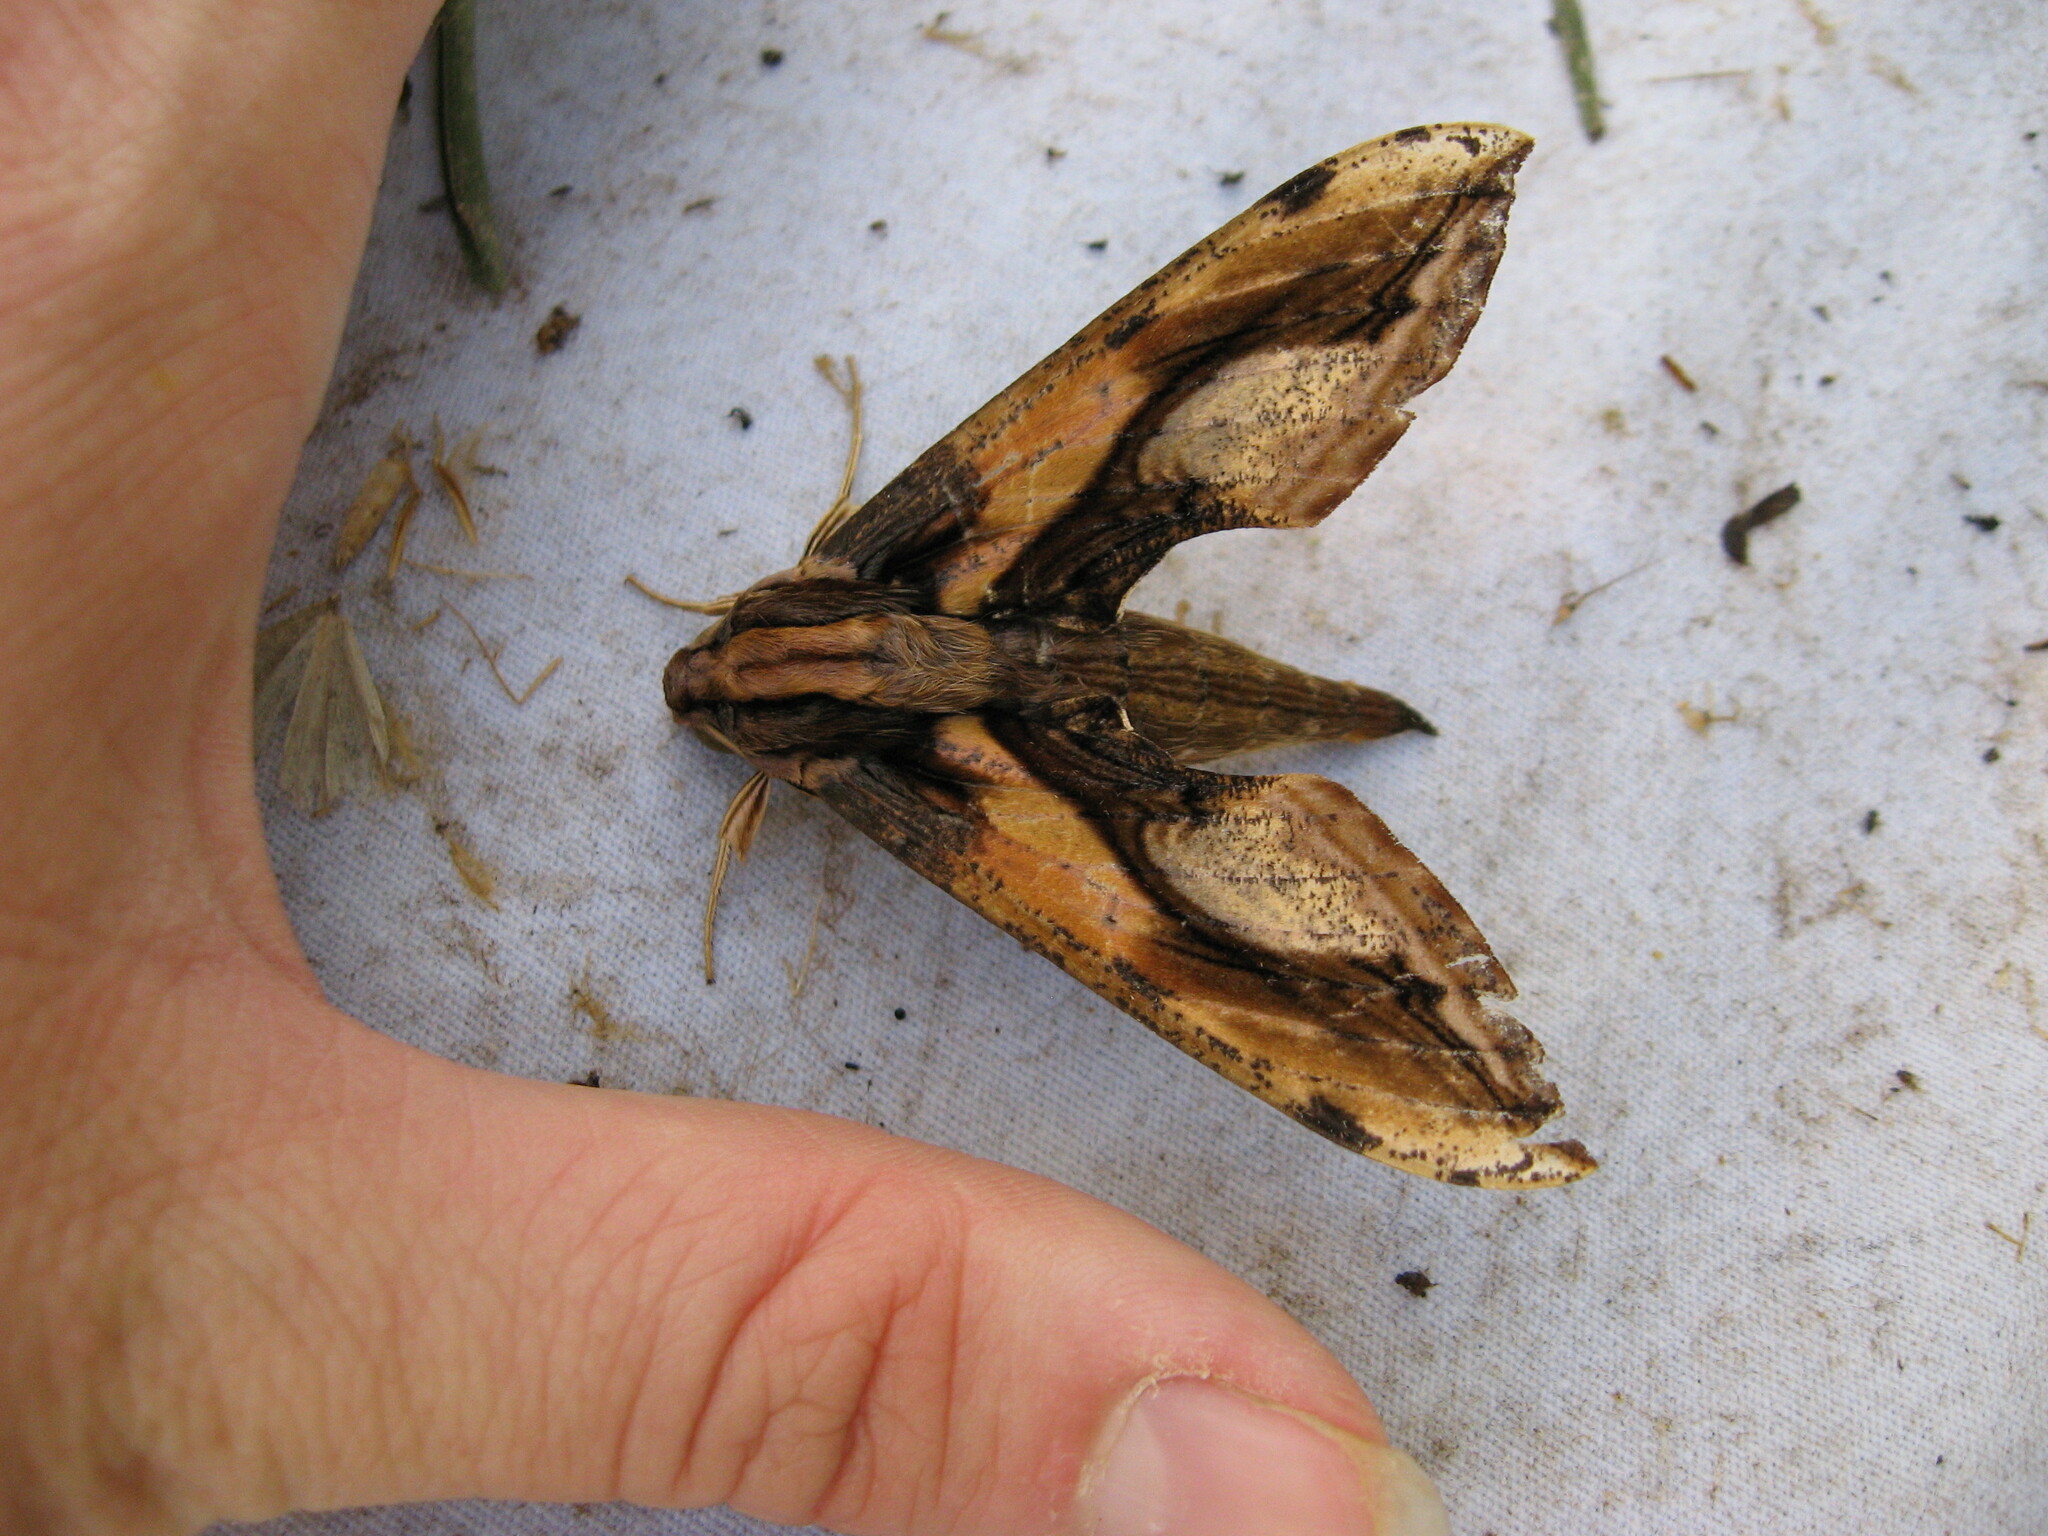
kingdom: Animalia
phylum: Arthropoda
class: Insecta
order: Lepidoptera
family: Sphingidae
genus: Xylophanes
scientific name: Xylophanes ceratomioides
